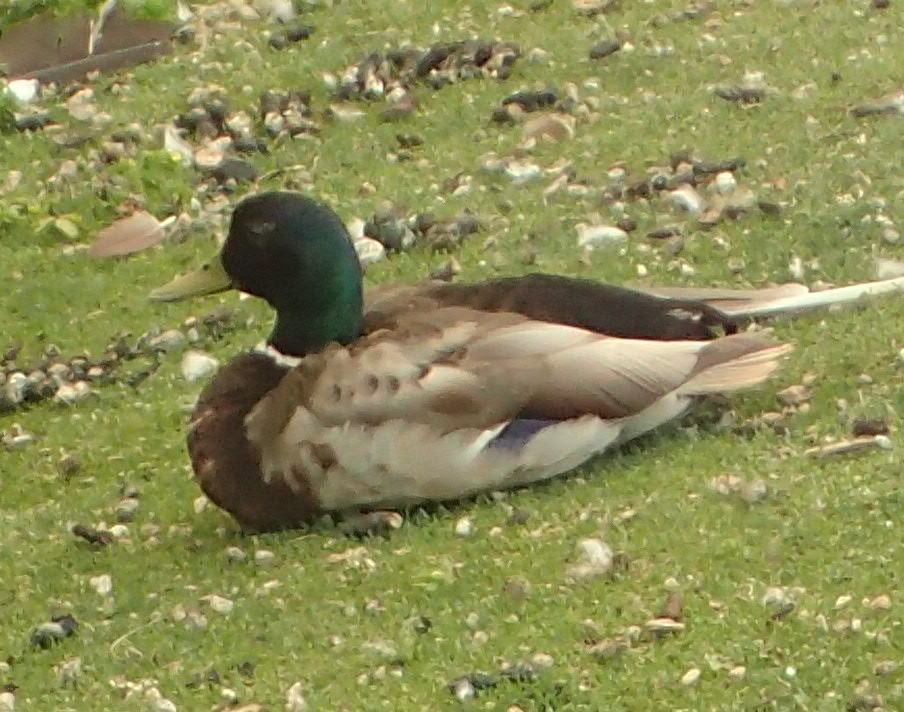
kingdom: Animalia
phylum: Chordata
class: Aves
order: Anseriformes
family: Anatidae
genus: Anas
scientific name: Anas platyrhynchos
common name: Mallard
